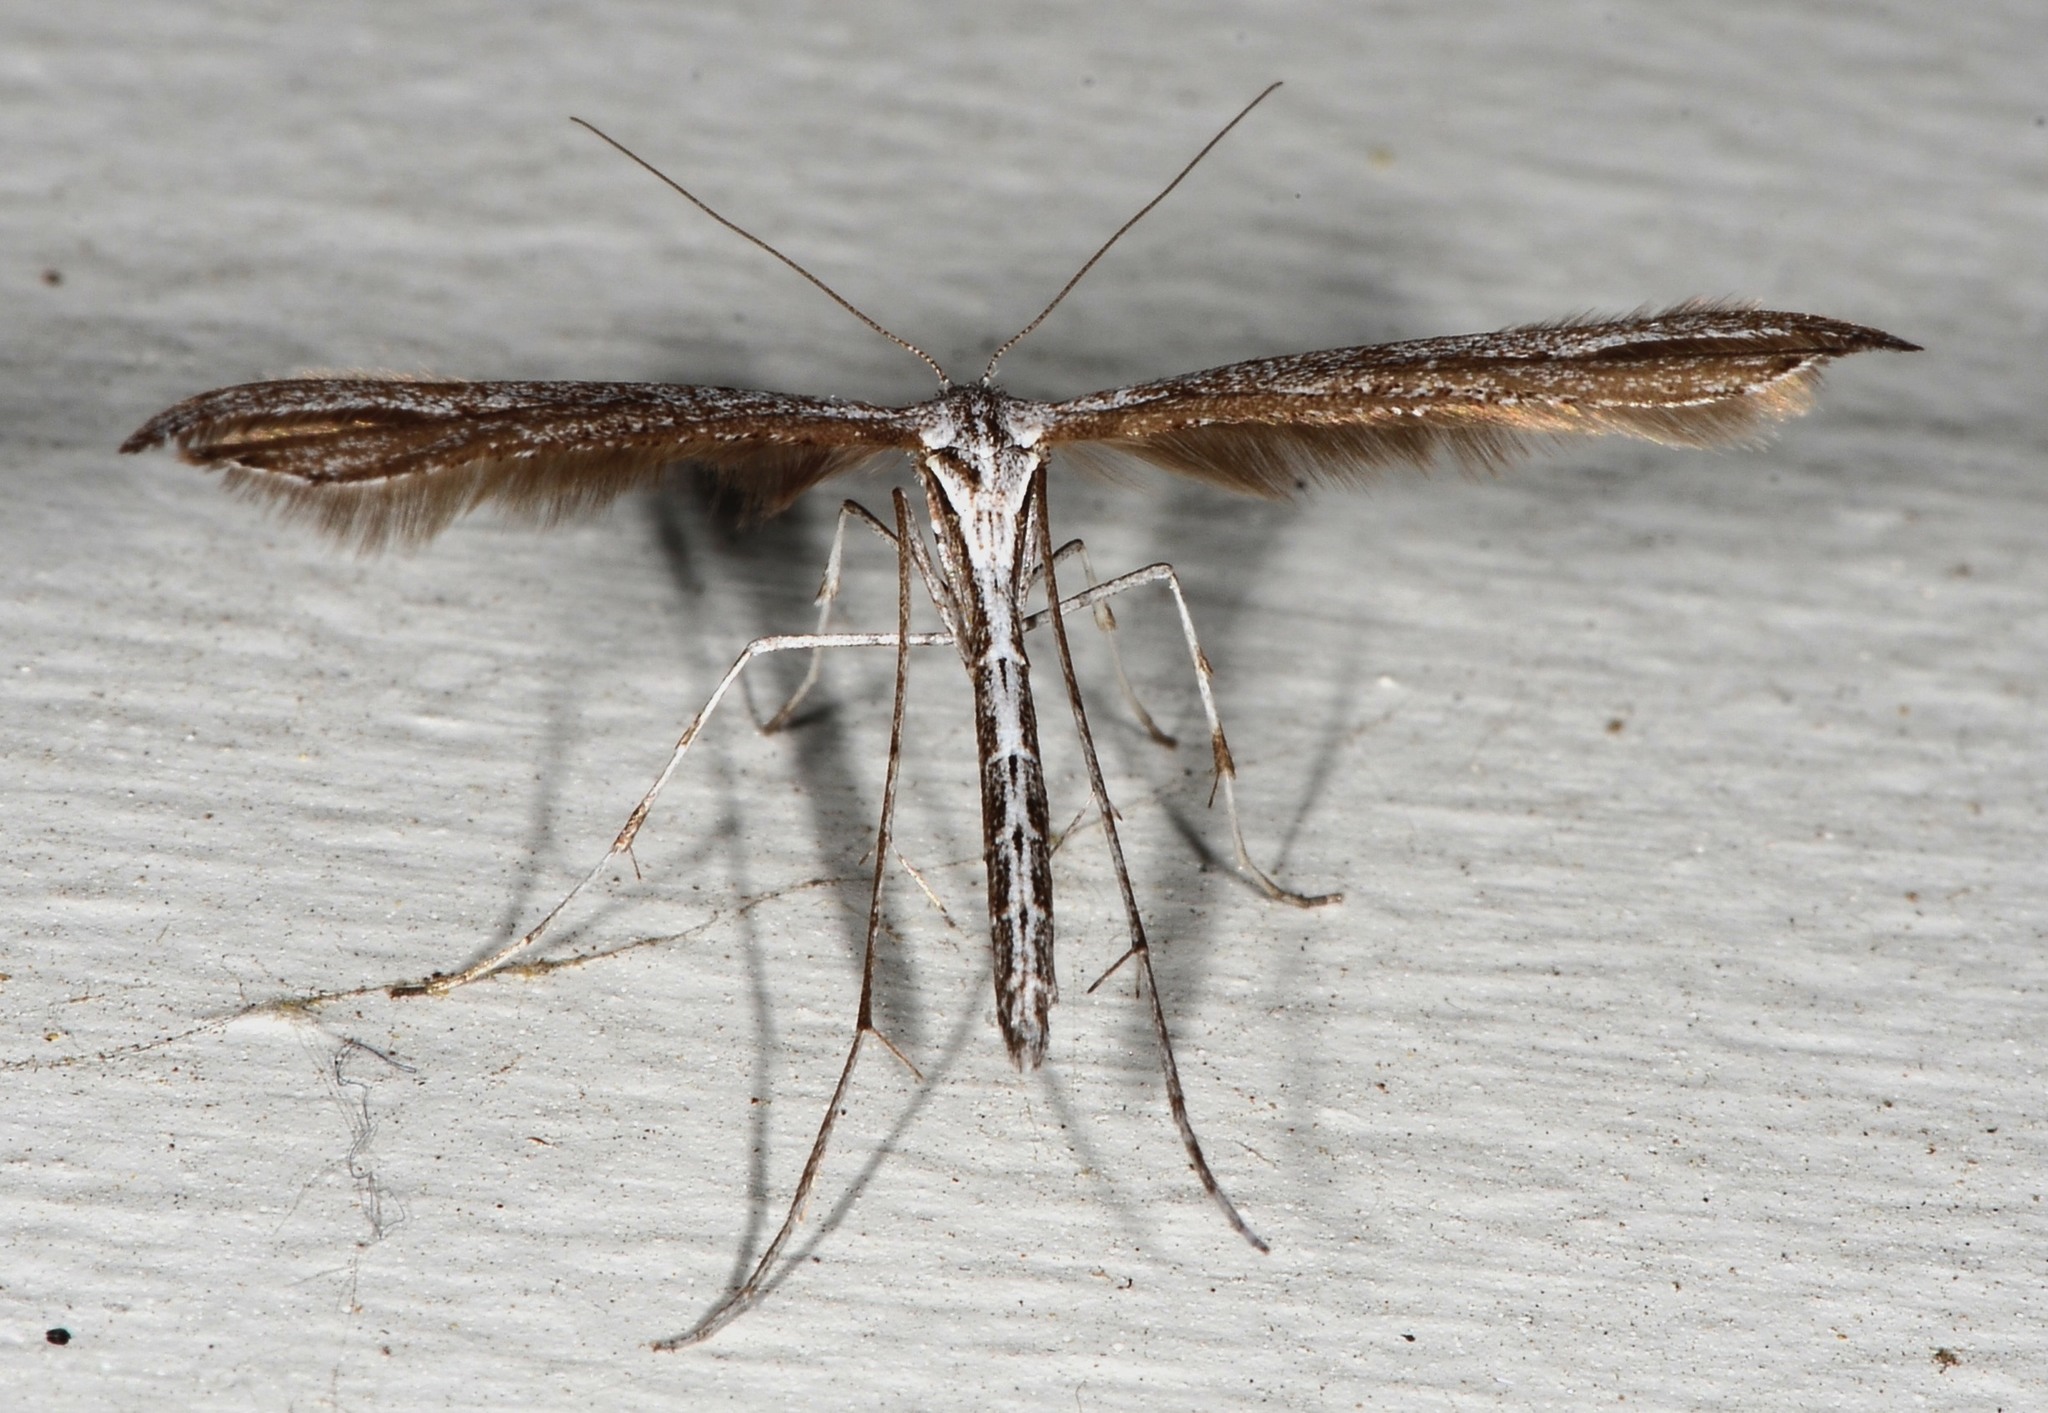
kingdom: Animalia
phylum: Arthropoda
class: Insecta
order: Lepidoptera
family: Pterophoridae
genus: Emmelina
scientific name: Emmelina monodactyla
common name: Common plume
